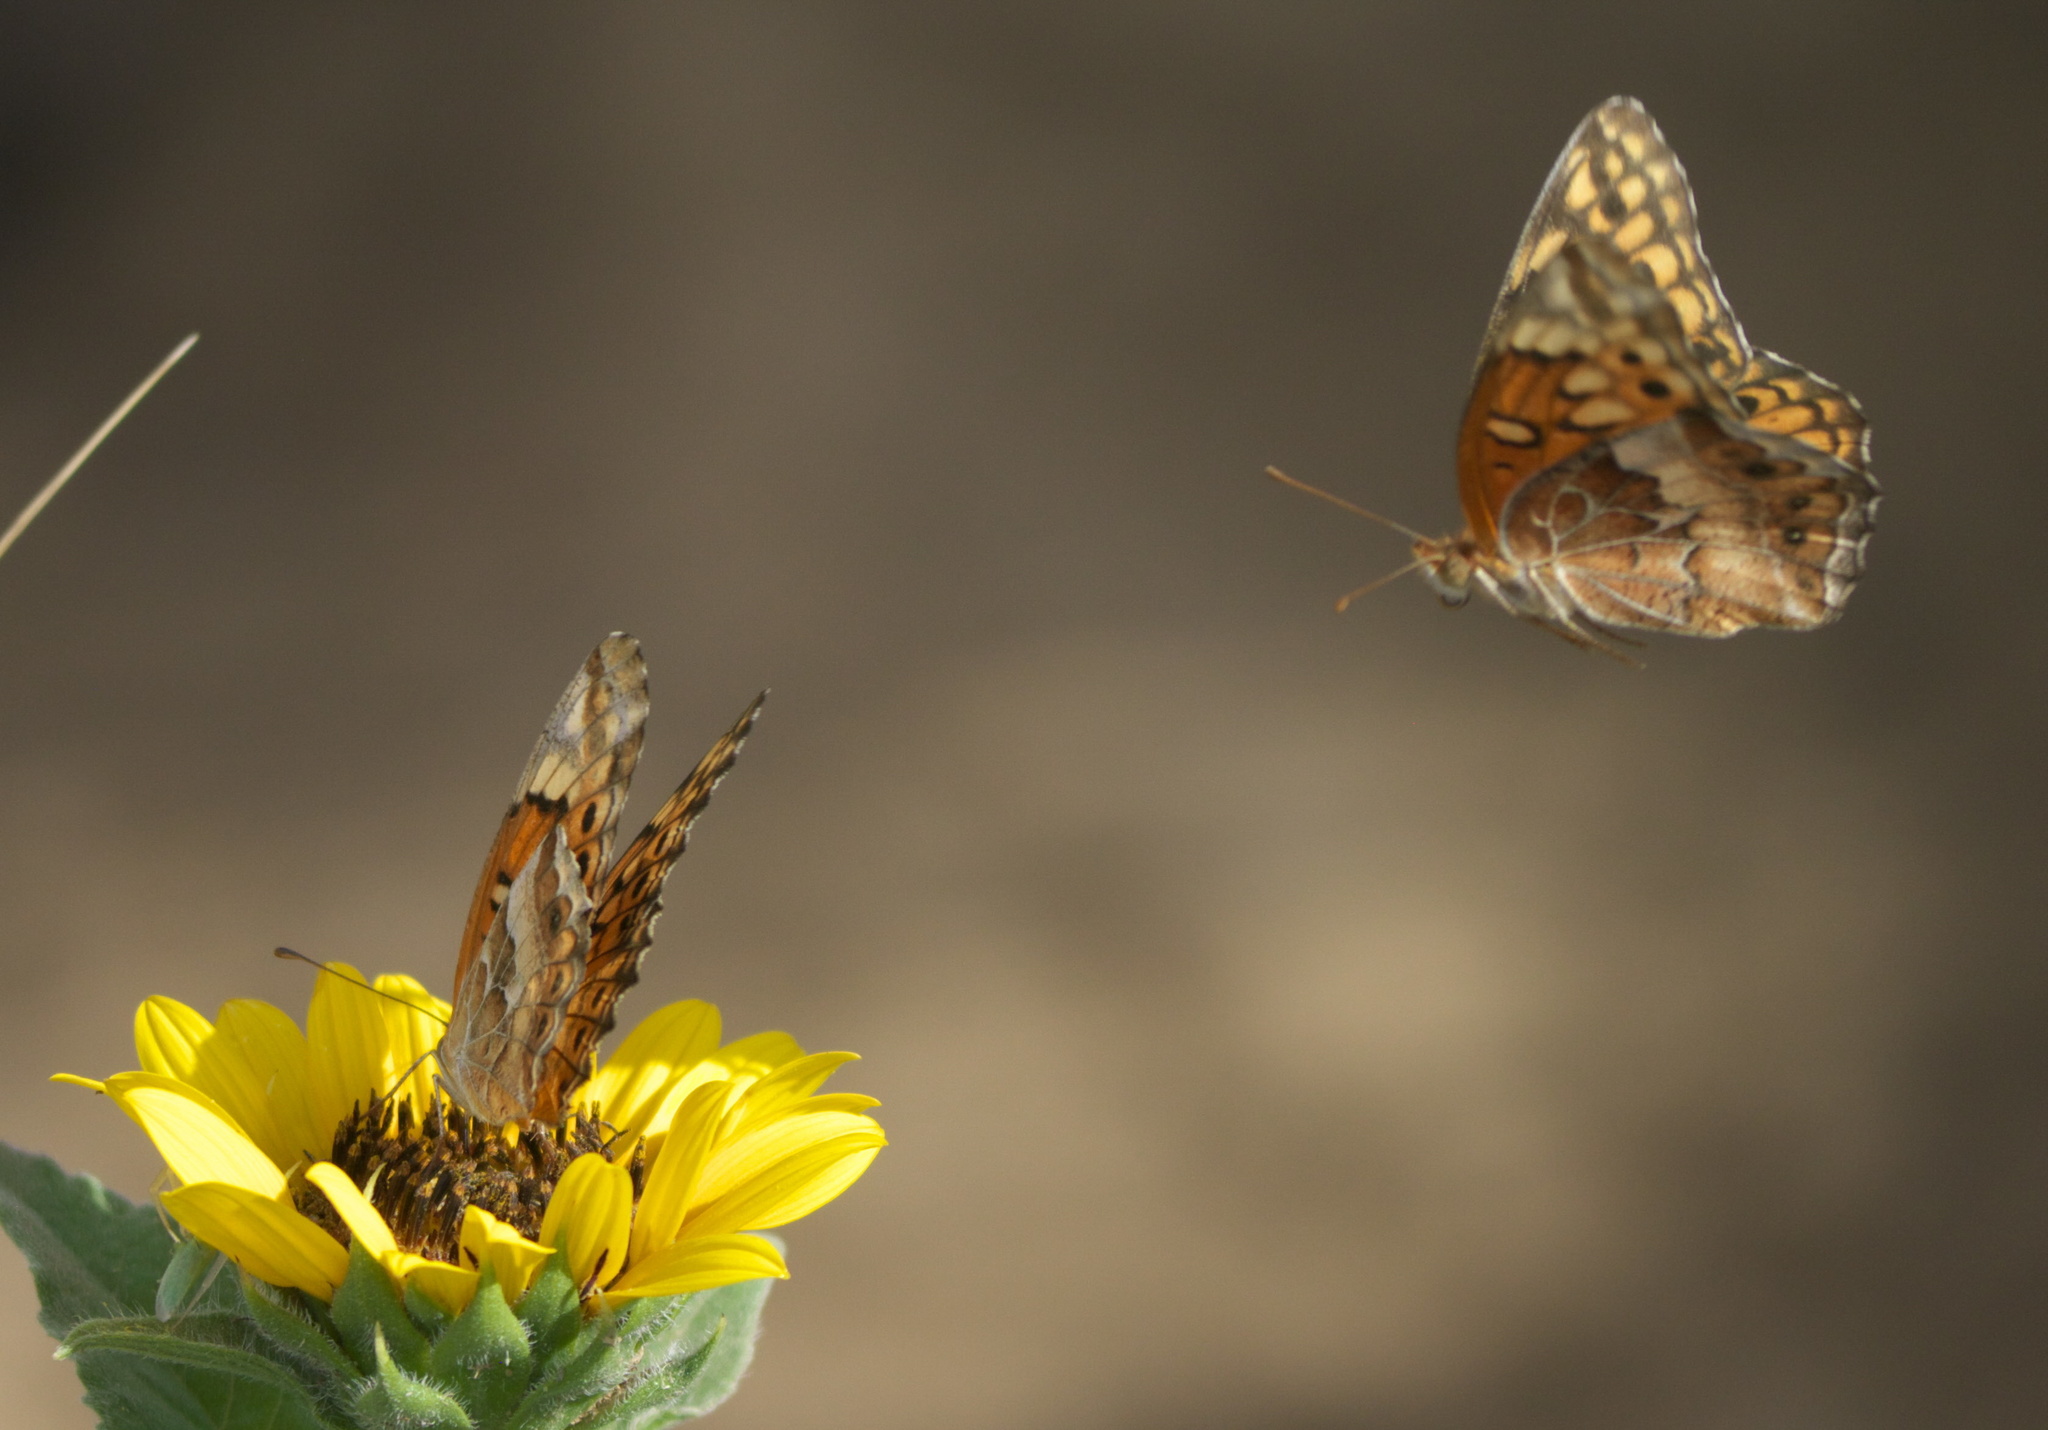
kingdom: Animalia
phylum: Arthropoda
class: Insecta
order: Lepidoptera
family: Nymphalidae
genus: Euptoieta
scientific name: Euptoieta claudia
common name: Variegated fritillary
